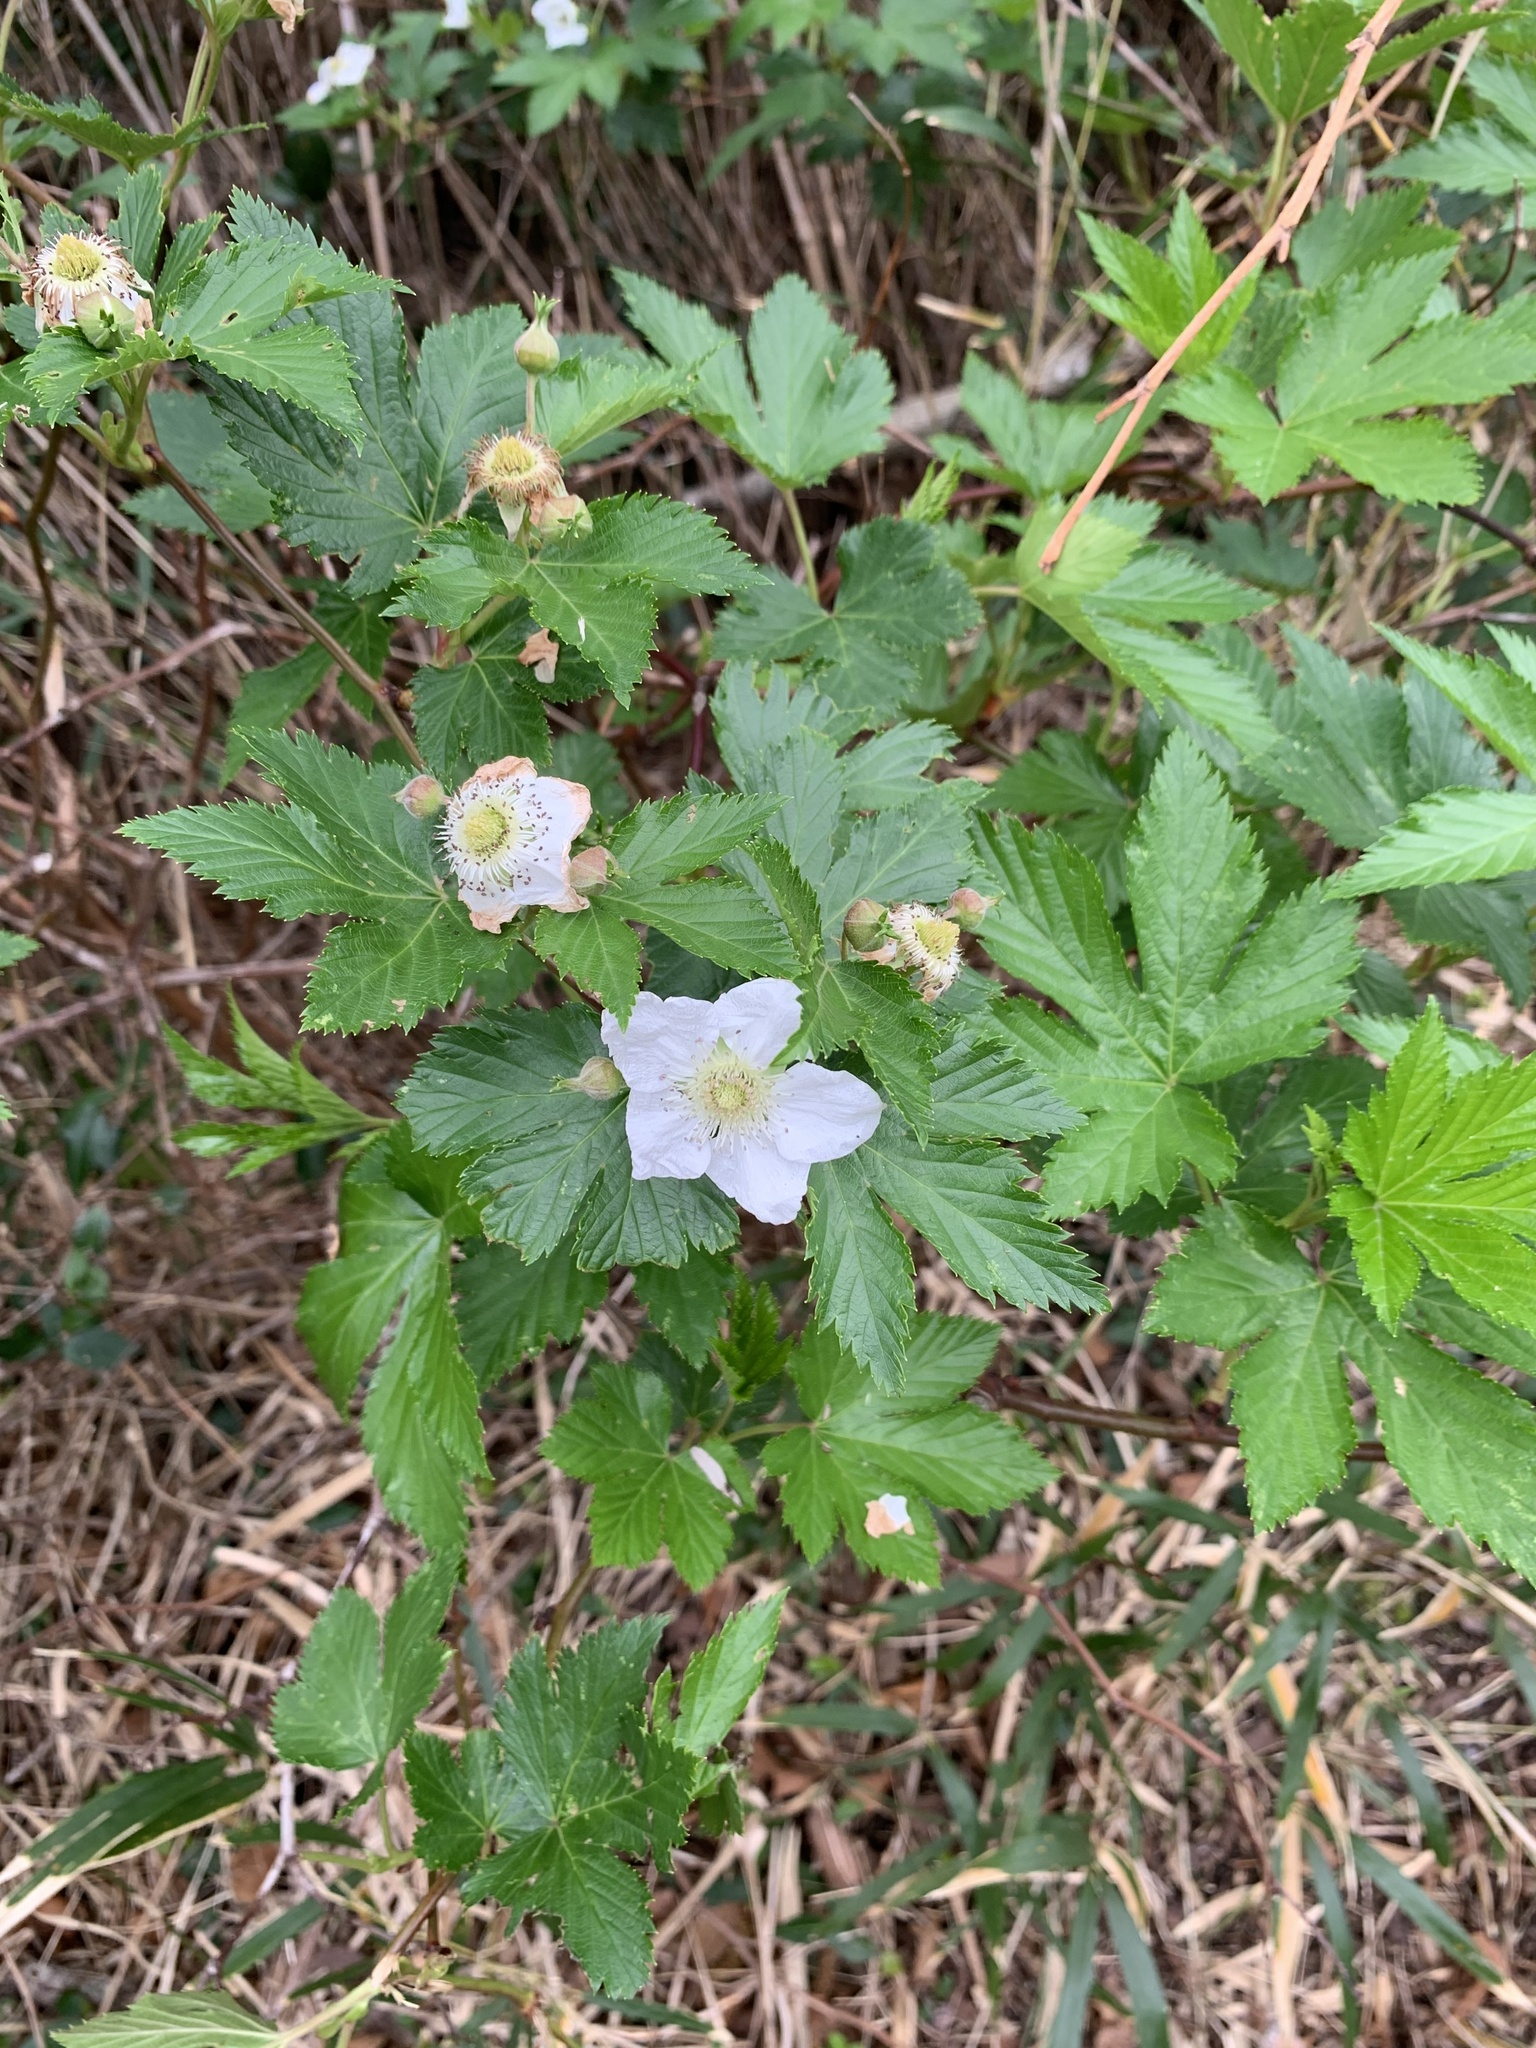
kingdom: Plantae
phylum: Tracheophyta
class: Magnoliopsida
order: Rosales
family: Rosaceae
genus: Rubus
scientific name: Rubus trifidus
